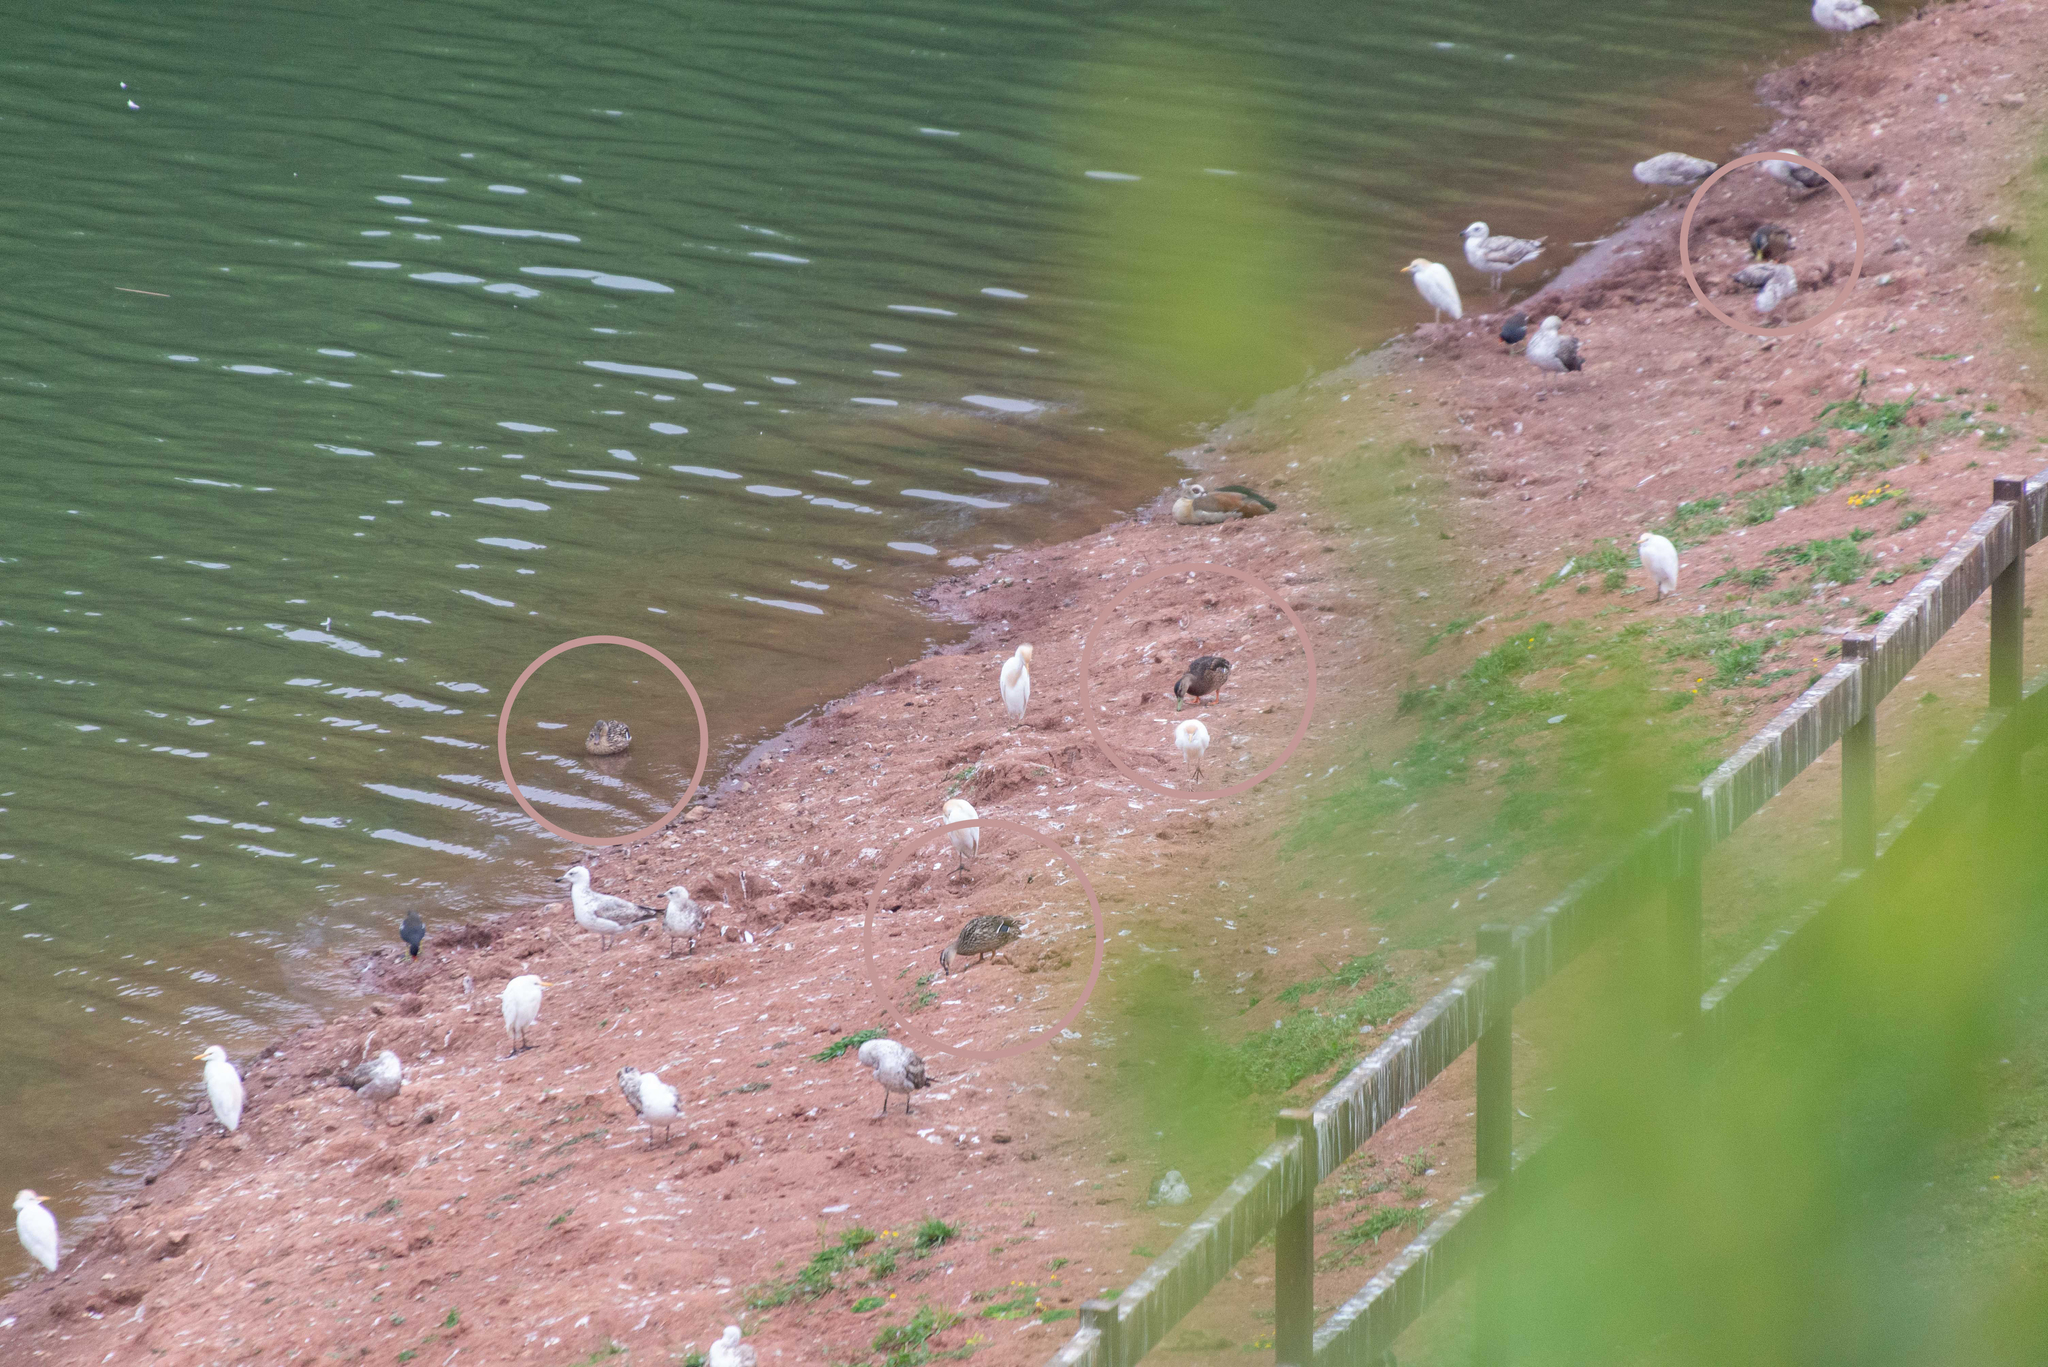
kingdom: Animalia
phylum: Chordata
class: Aves
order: Anseriformes
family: Anatidae
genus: Anas
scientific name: Anas platyrhynchos
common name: Mallard
